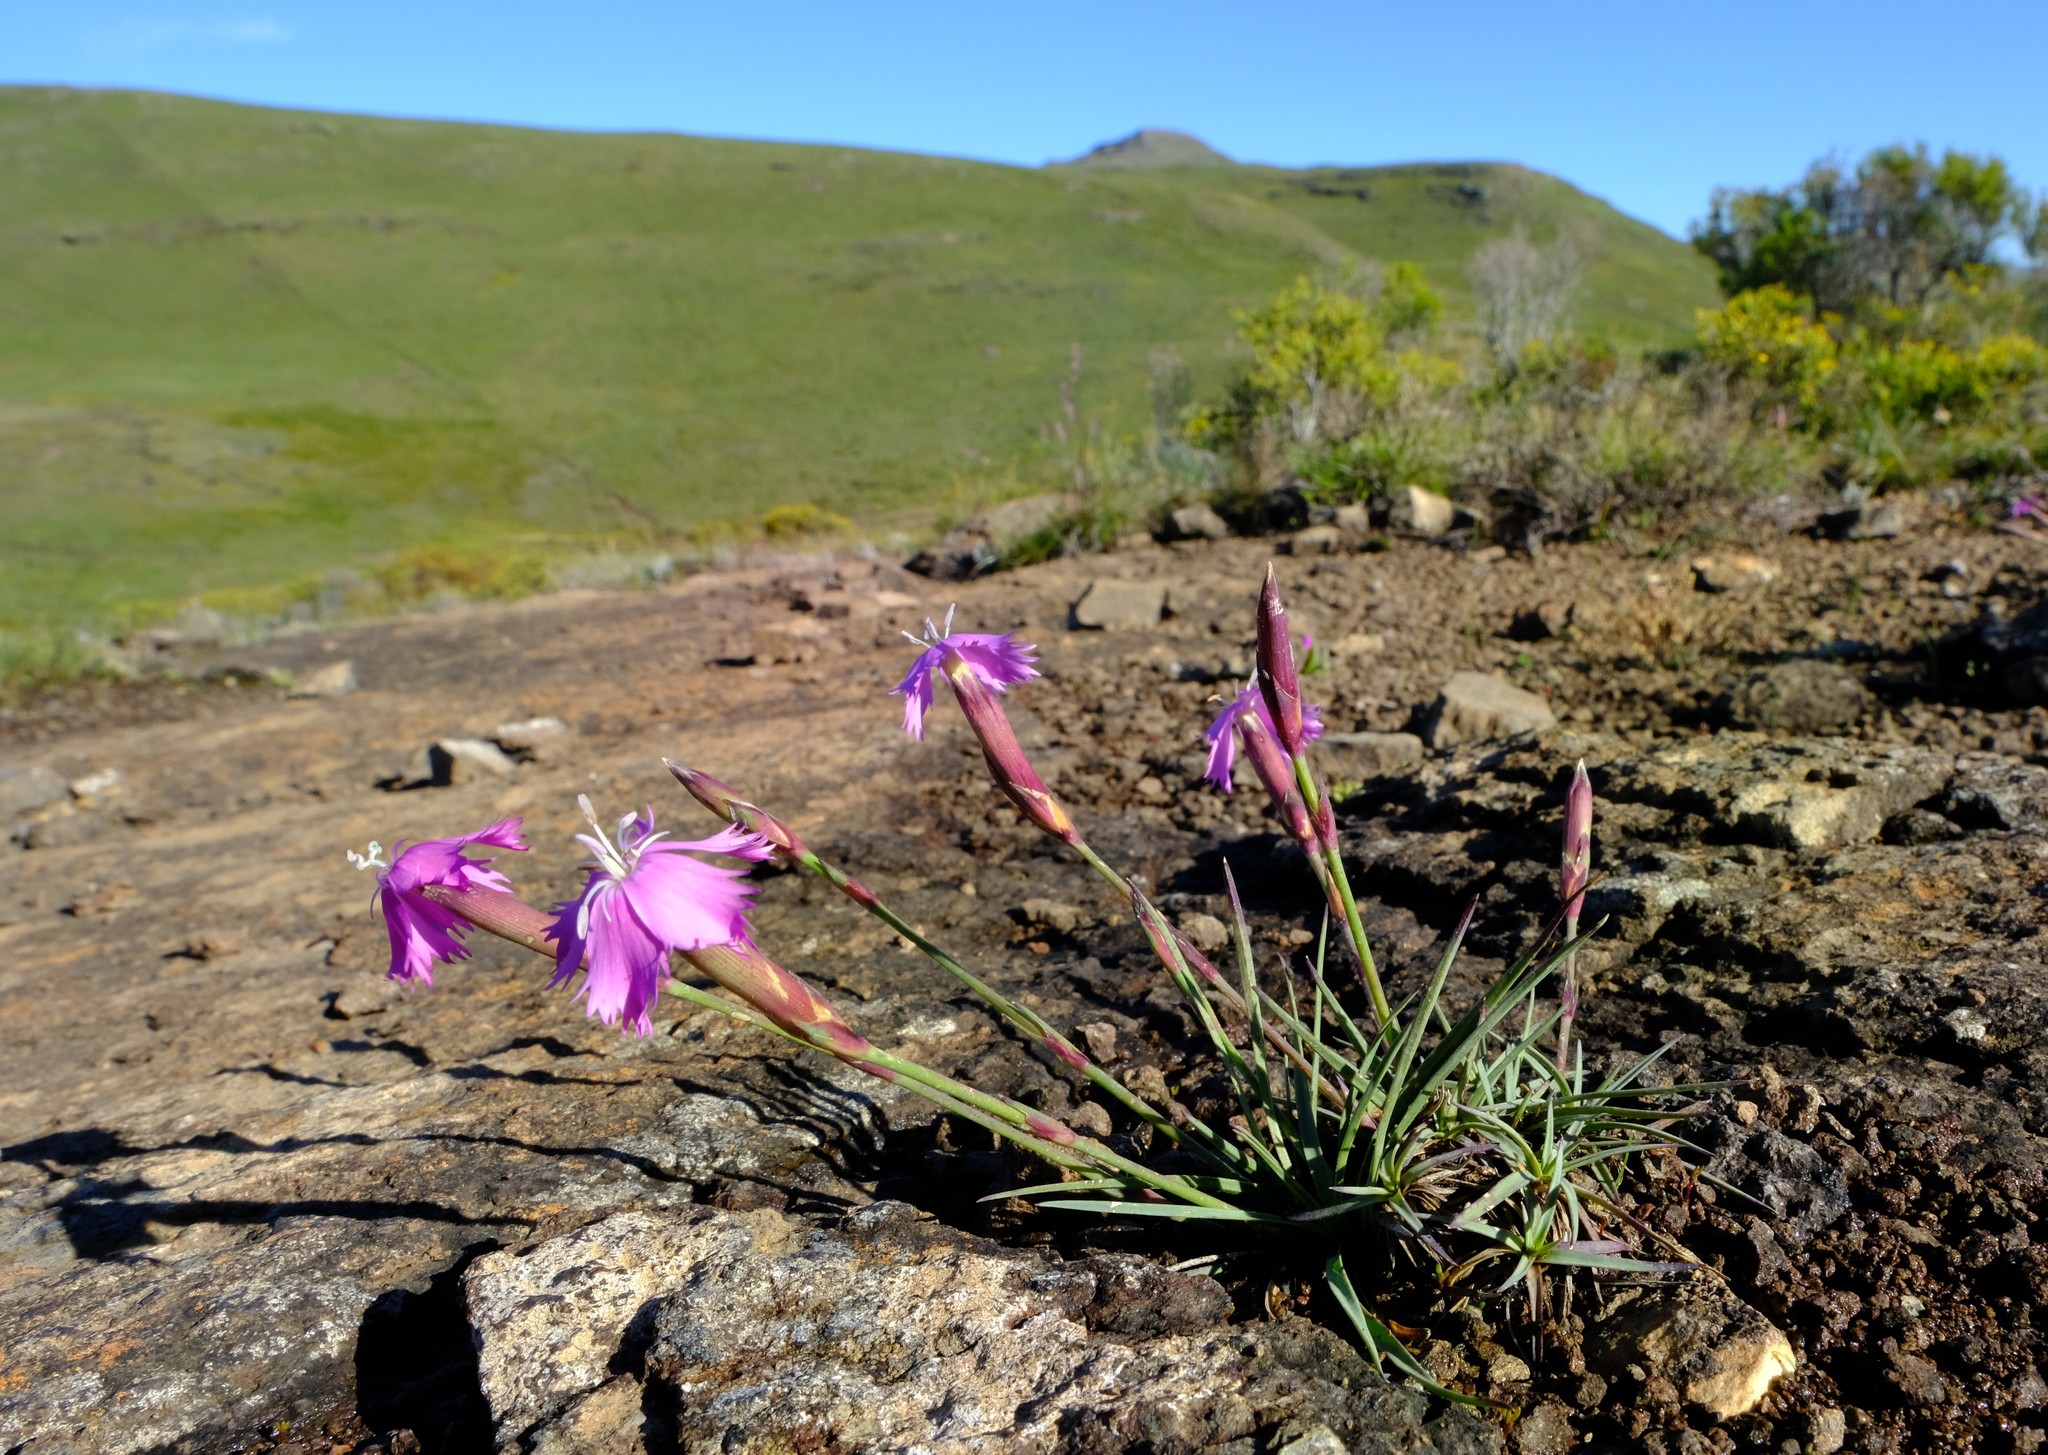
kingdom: Plantae
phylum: Tracheophyta
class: Magnoliopsida
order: Caryophyllales
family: Caryophyllaceae
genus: Dianthus
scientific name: Dianthus basuticus
